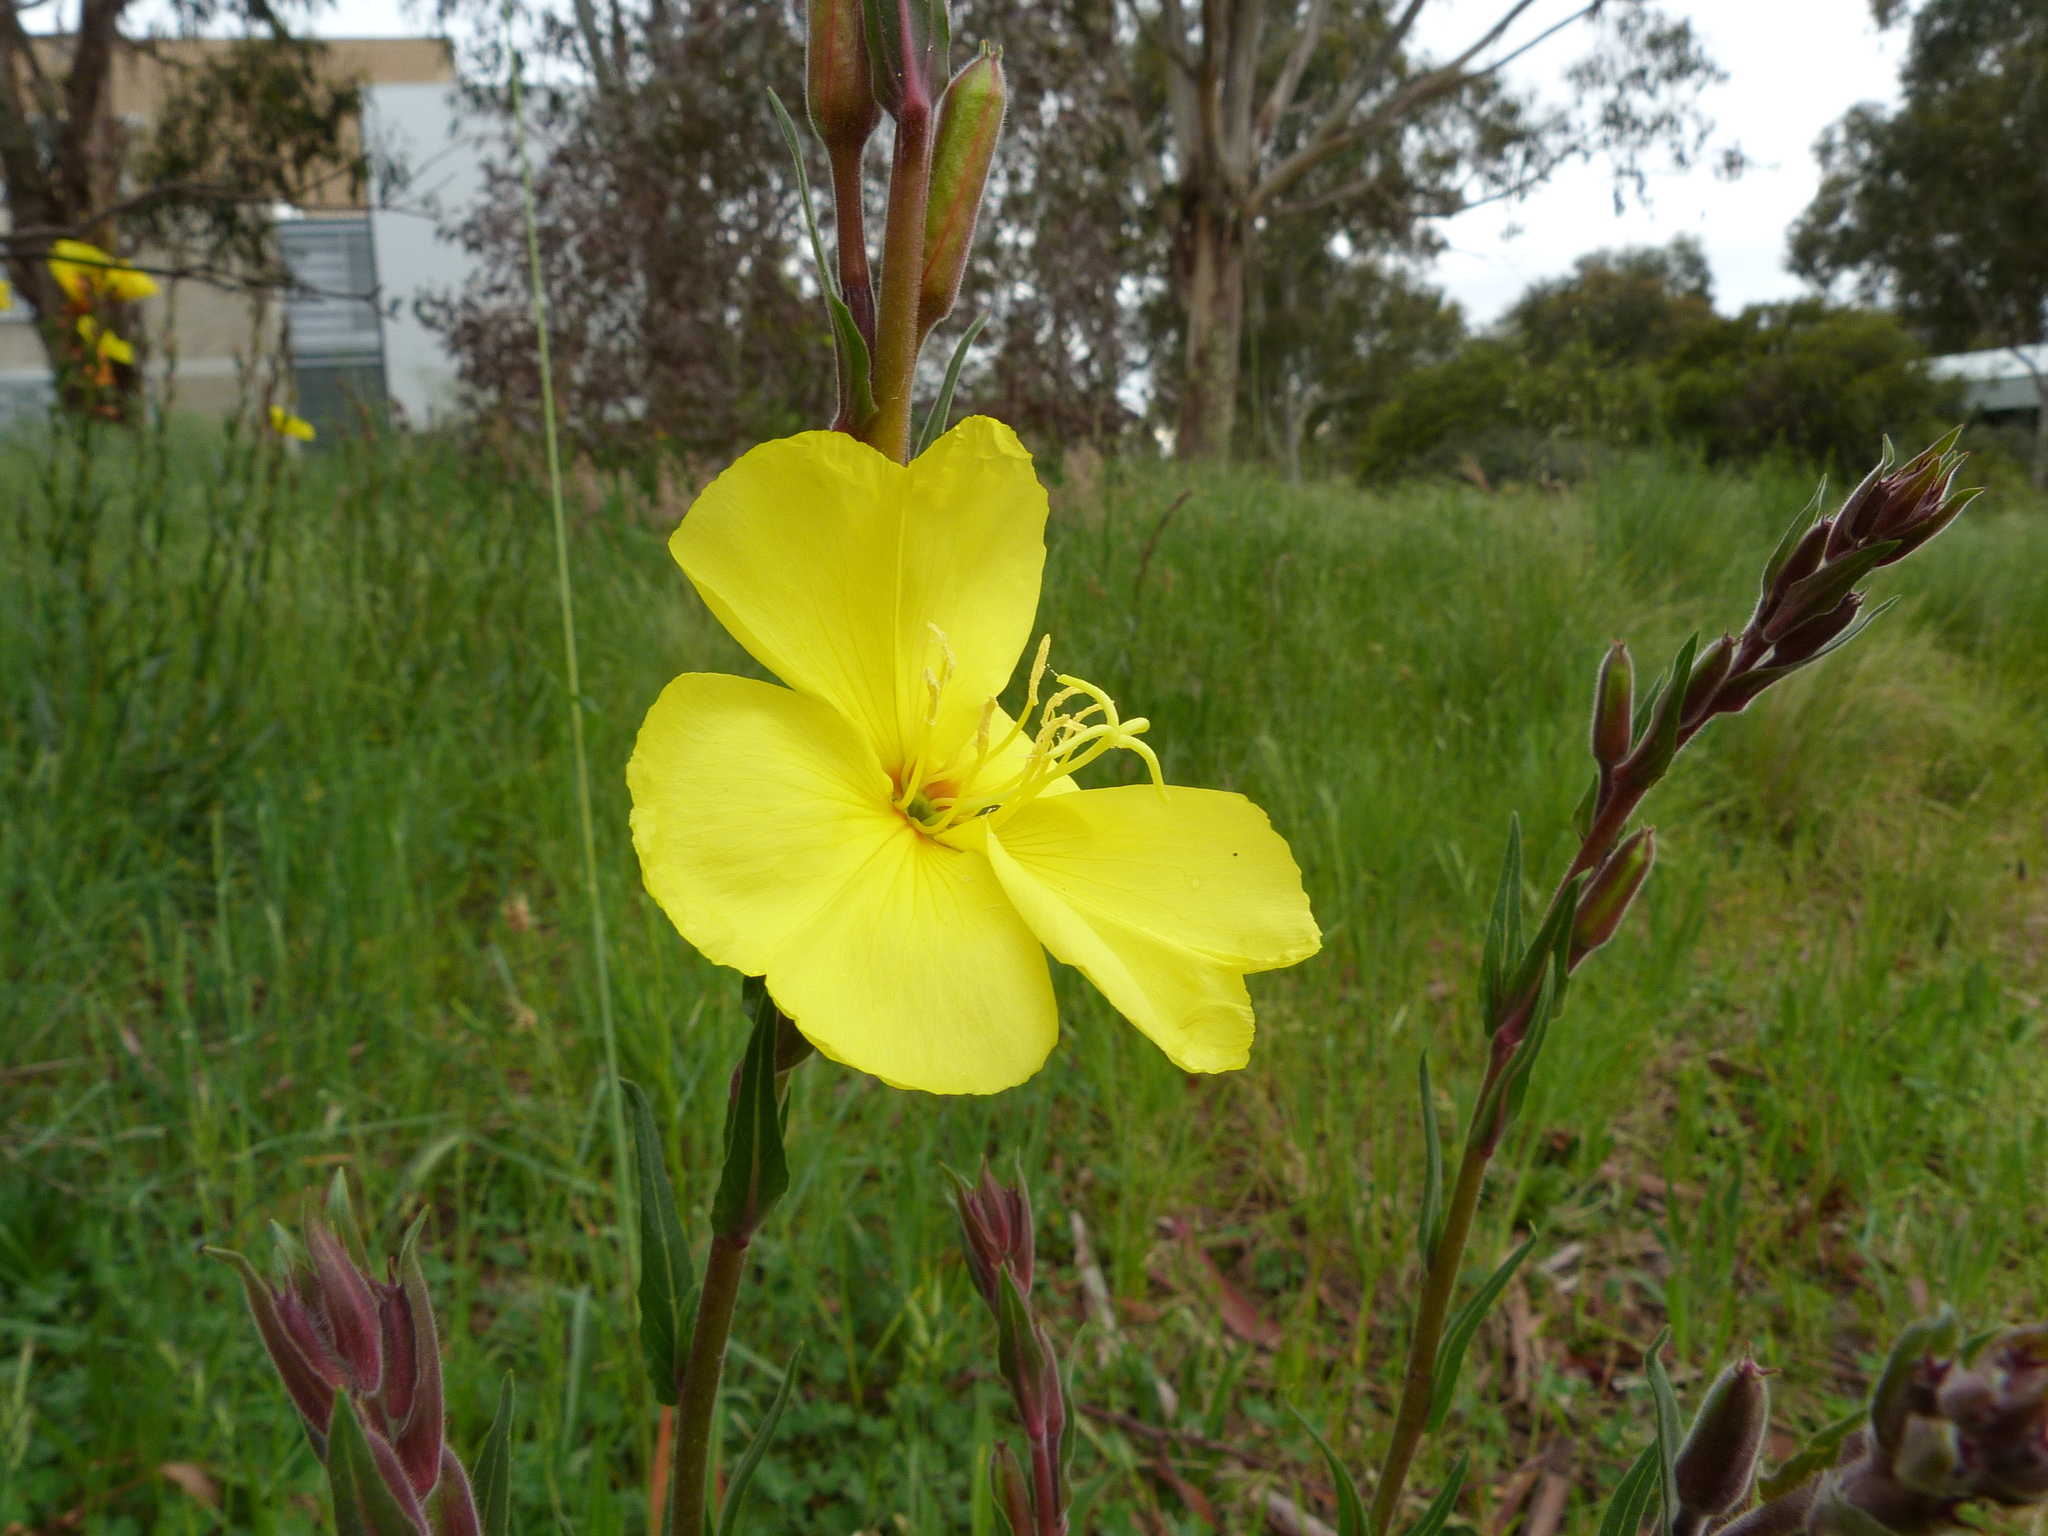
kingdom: Plantae
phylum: Tracheophyta
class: Magnoliopsida
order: Myrtales
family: Onagraceae
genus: Oenothera
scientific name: Oenothera stricta
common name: Fragrant evening-primrose
